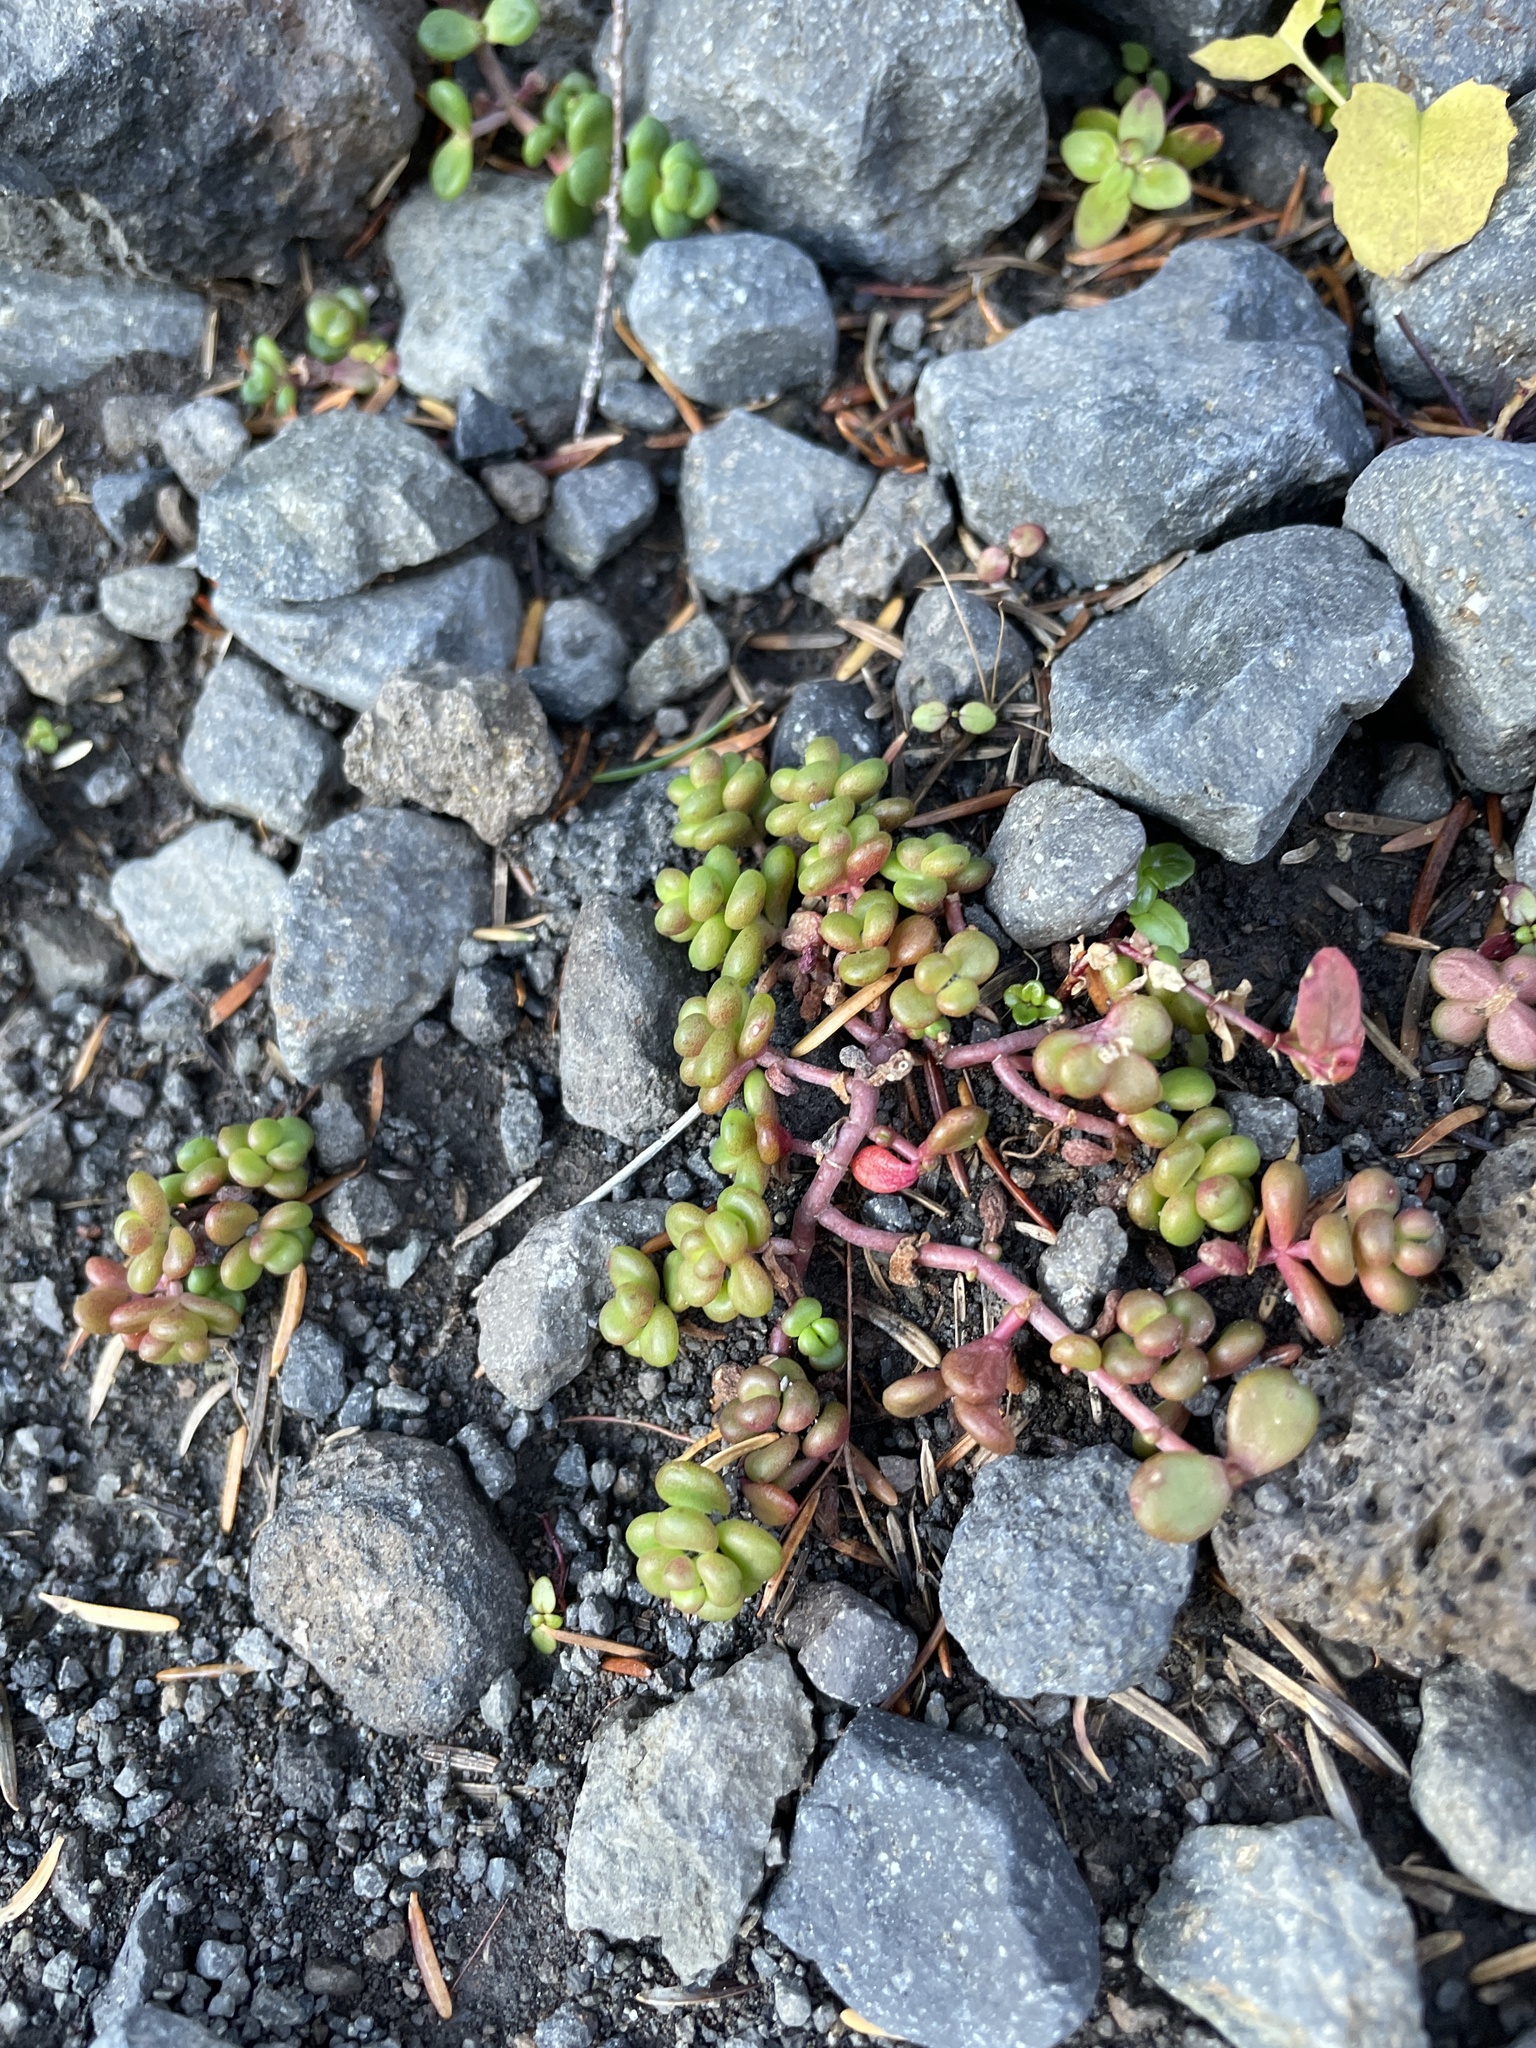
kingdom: Plantae
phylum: Tracheophyta
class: Magnoliopsida
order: Saxifragales
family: Crassulaceae
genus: Sedum
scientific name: Sedum divergens
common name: Cascade stonecrop
